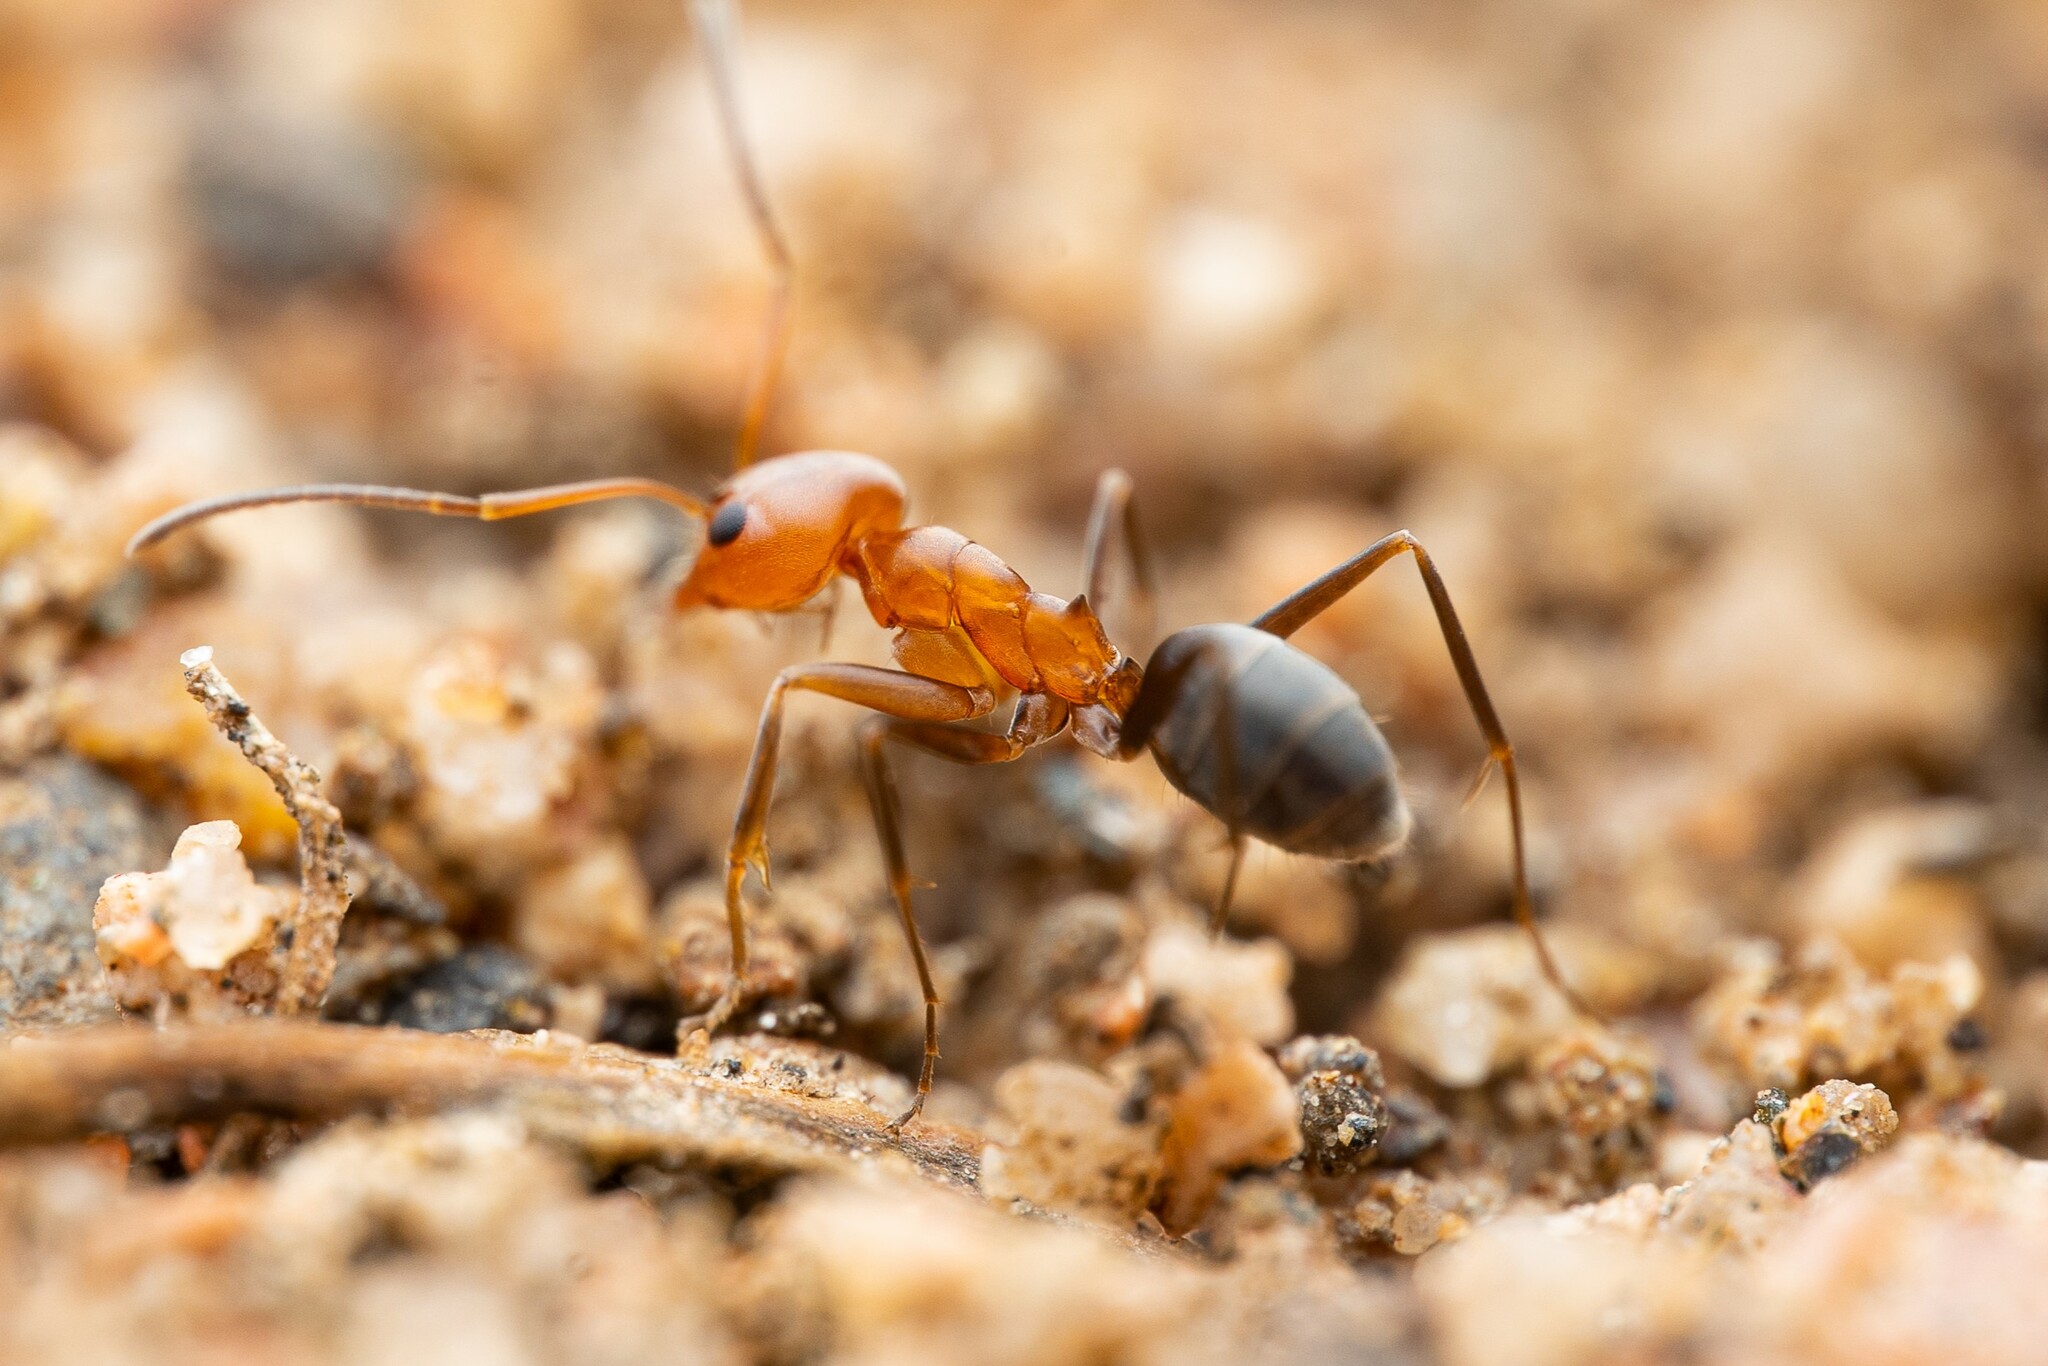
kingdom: Animalia
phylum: Arthropoda
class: Insecta
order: Hymenoptera
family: Formicidae
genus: Dorymyrmex
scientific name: Dorymyrmex bicolor
